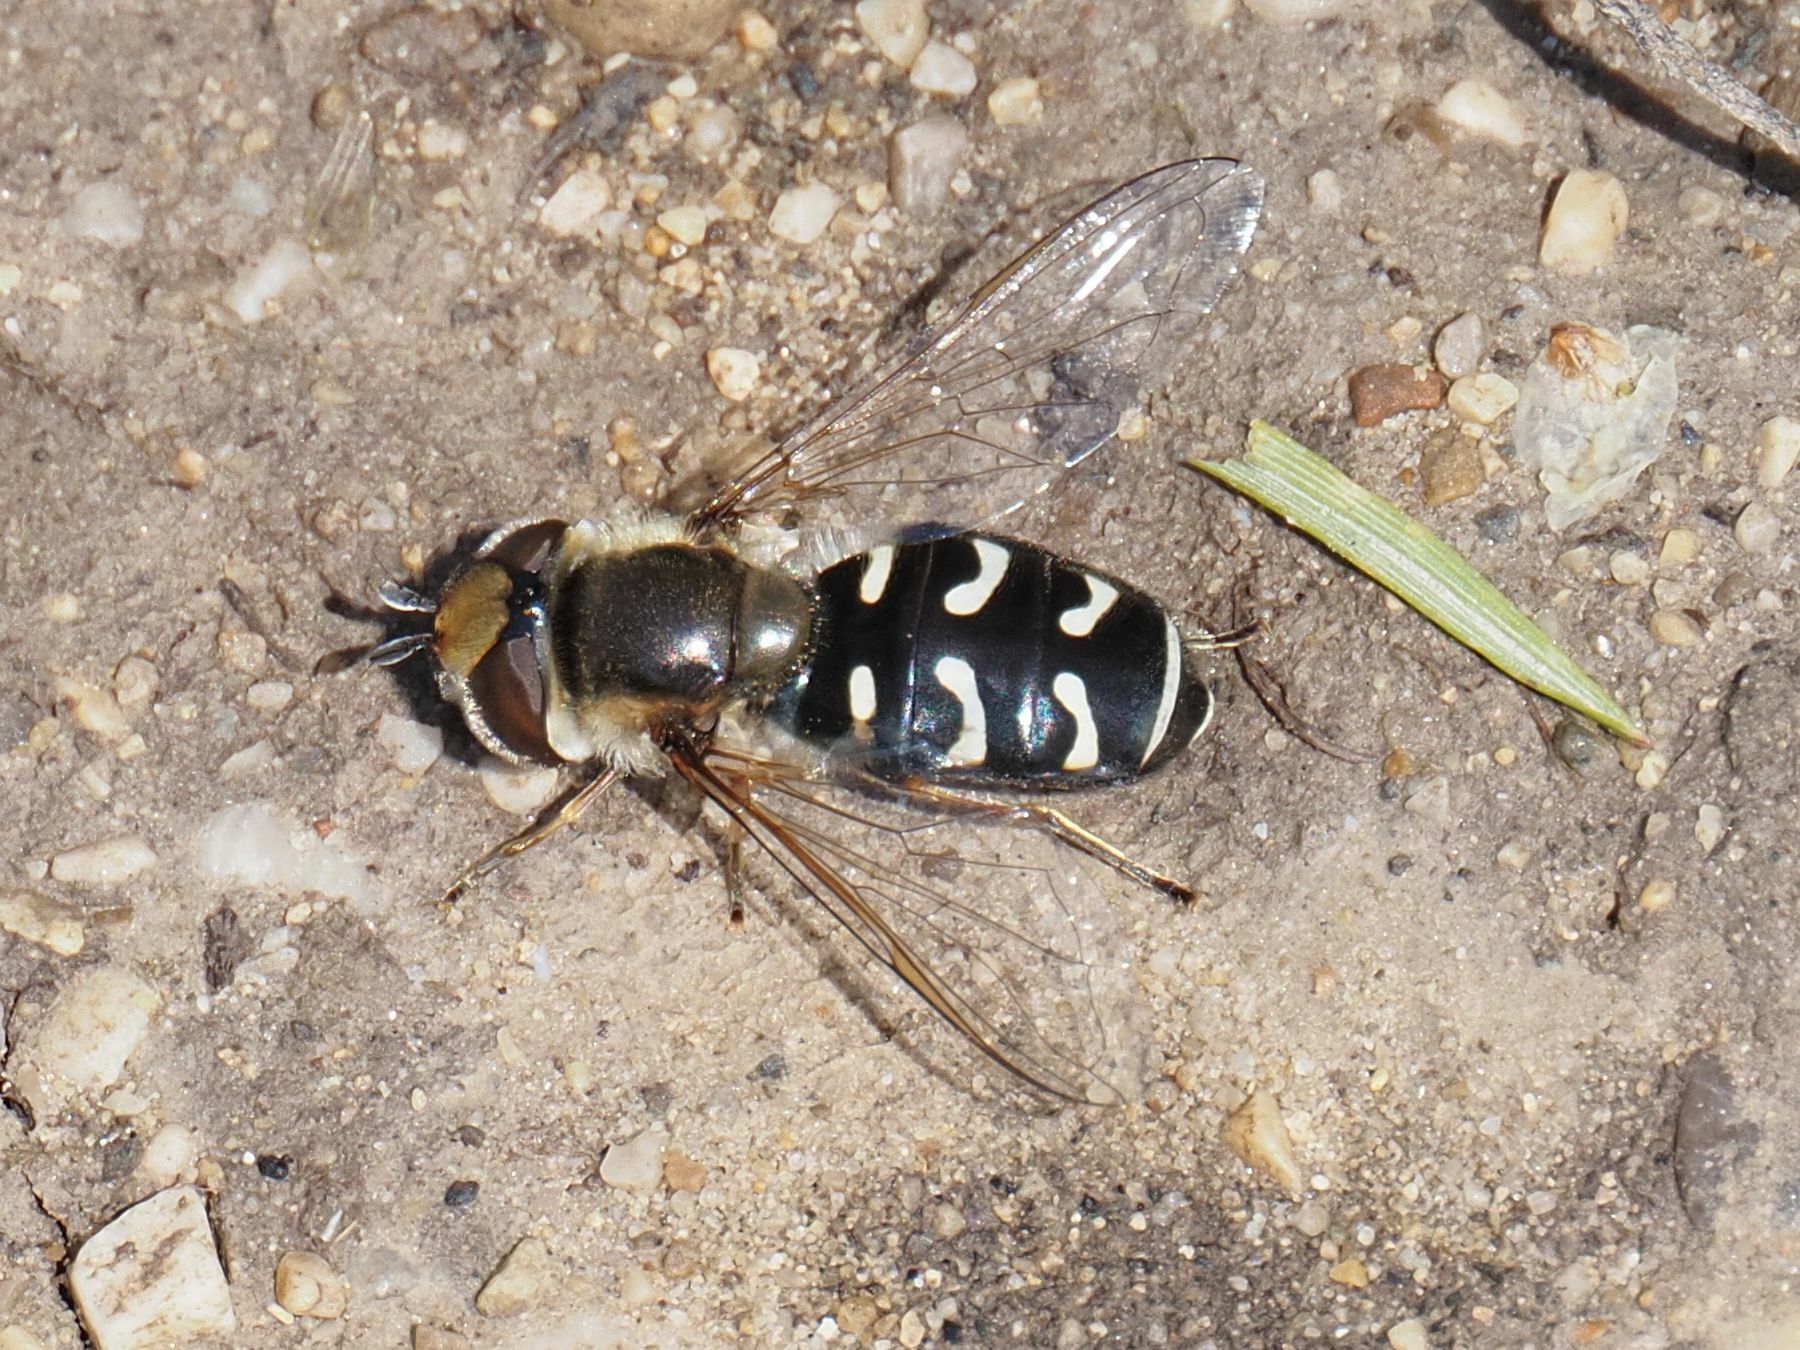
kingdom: Animalia
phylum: Arthropoda
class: Insecta
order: Diptera
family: Syrphidae
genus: Scaeva
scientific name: Scaeva pyrastri
